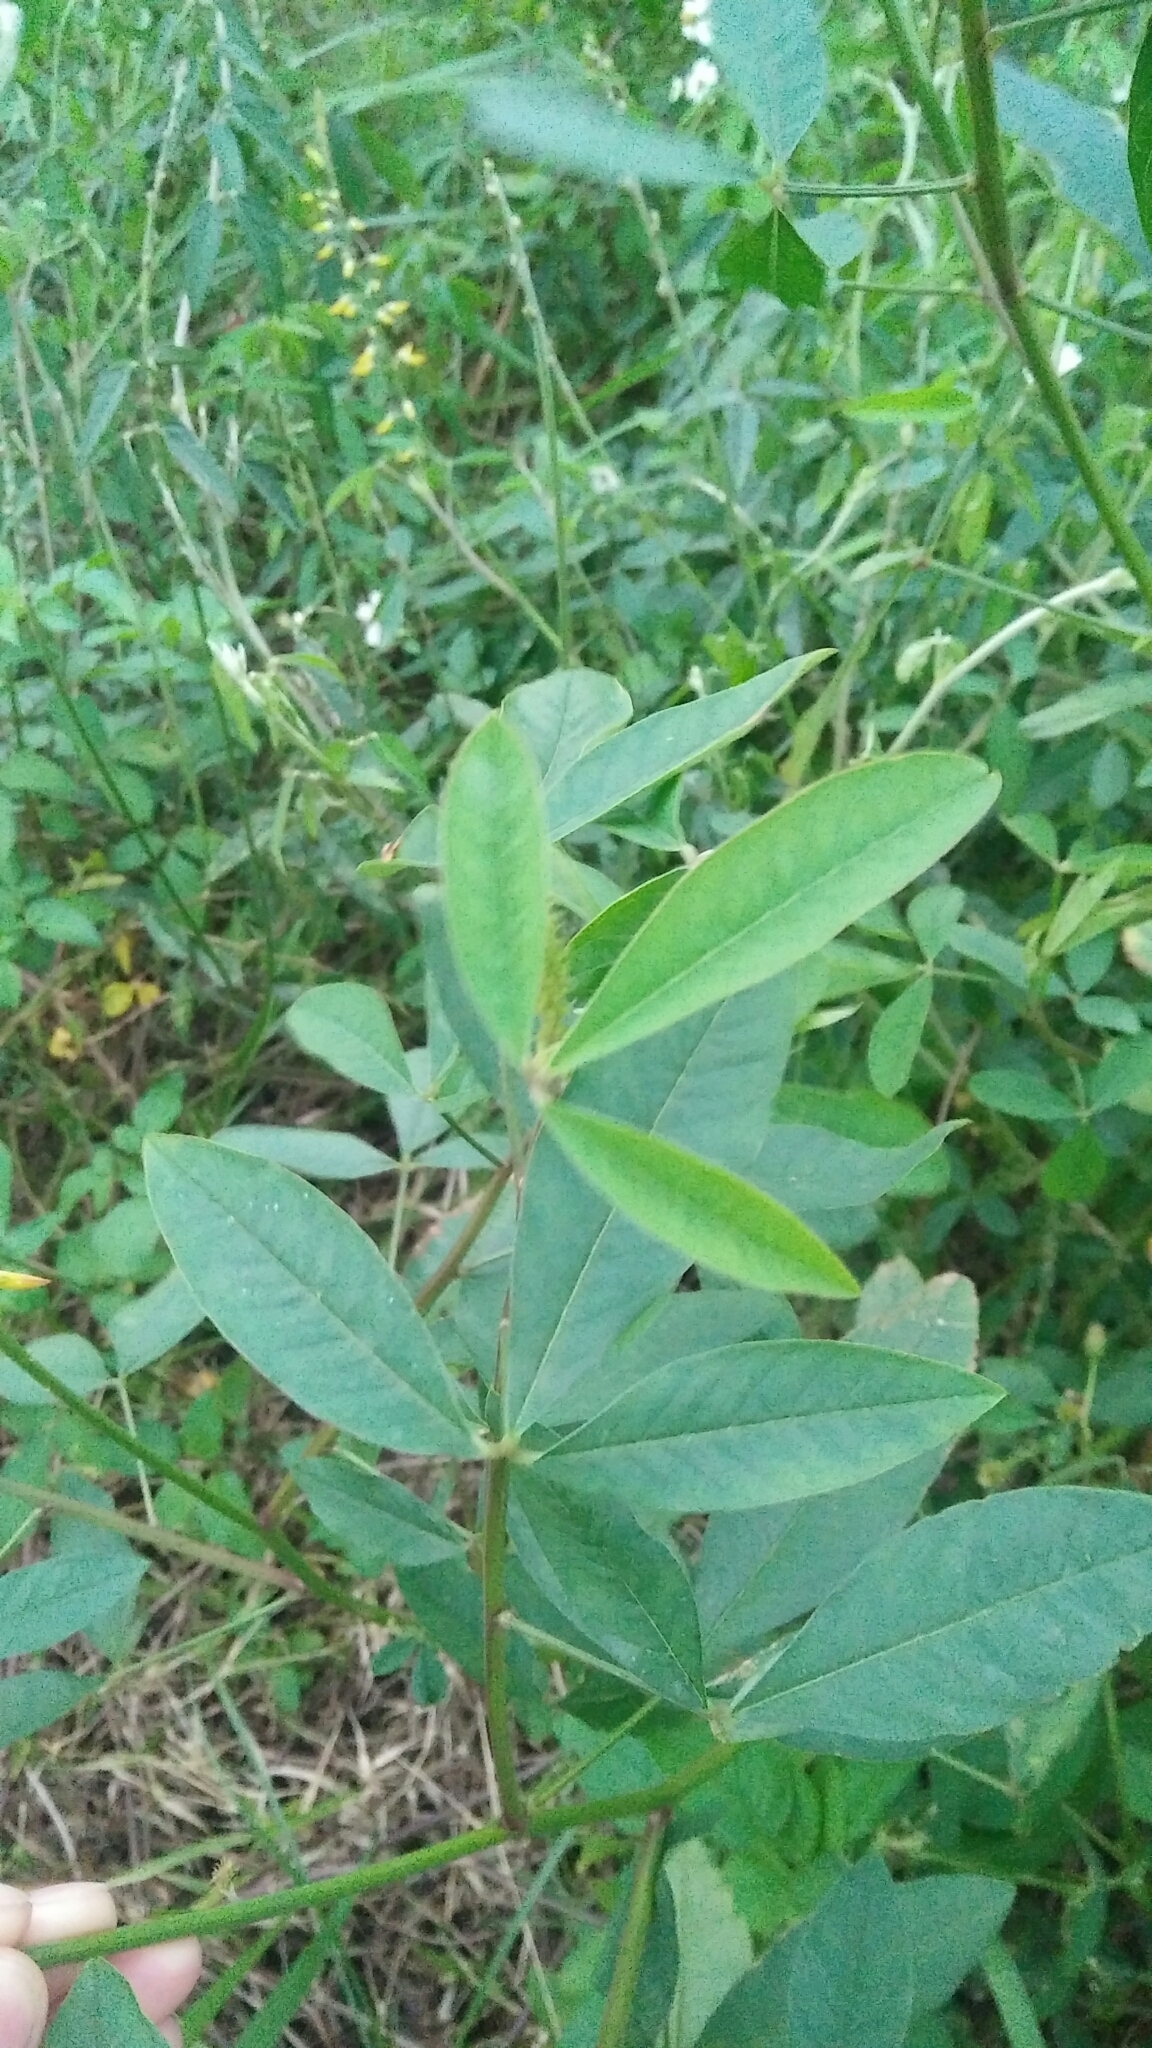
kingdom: Plantae
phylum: Tracheophyta
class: Magnoliopsida
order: Fabales
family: Fabaceae
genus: Crotalaria
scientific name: Crotalaria trichotoma
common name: West indian rattlebox
